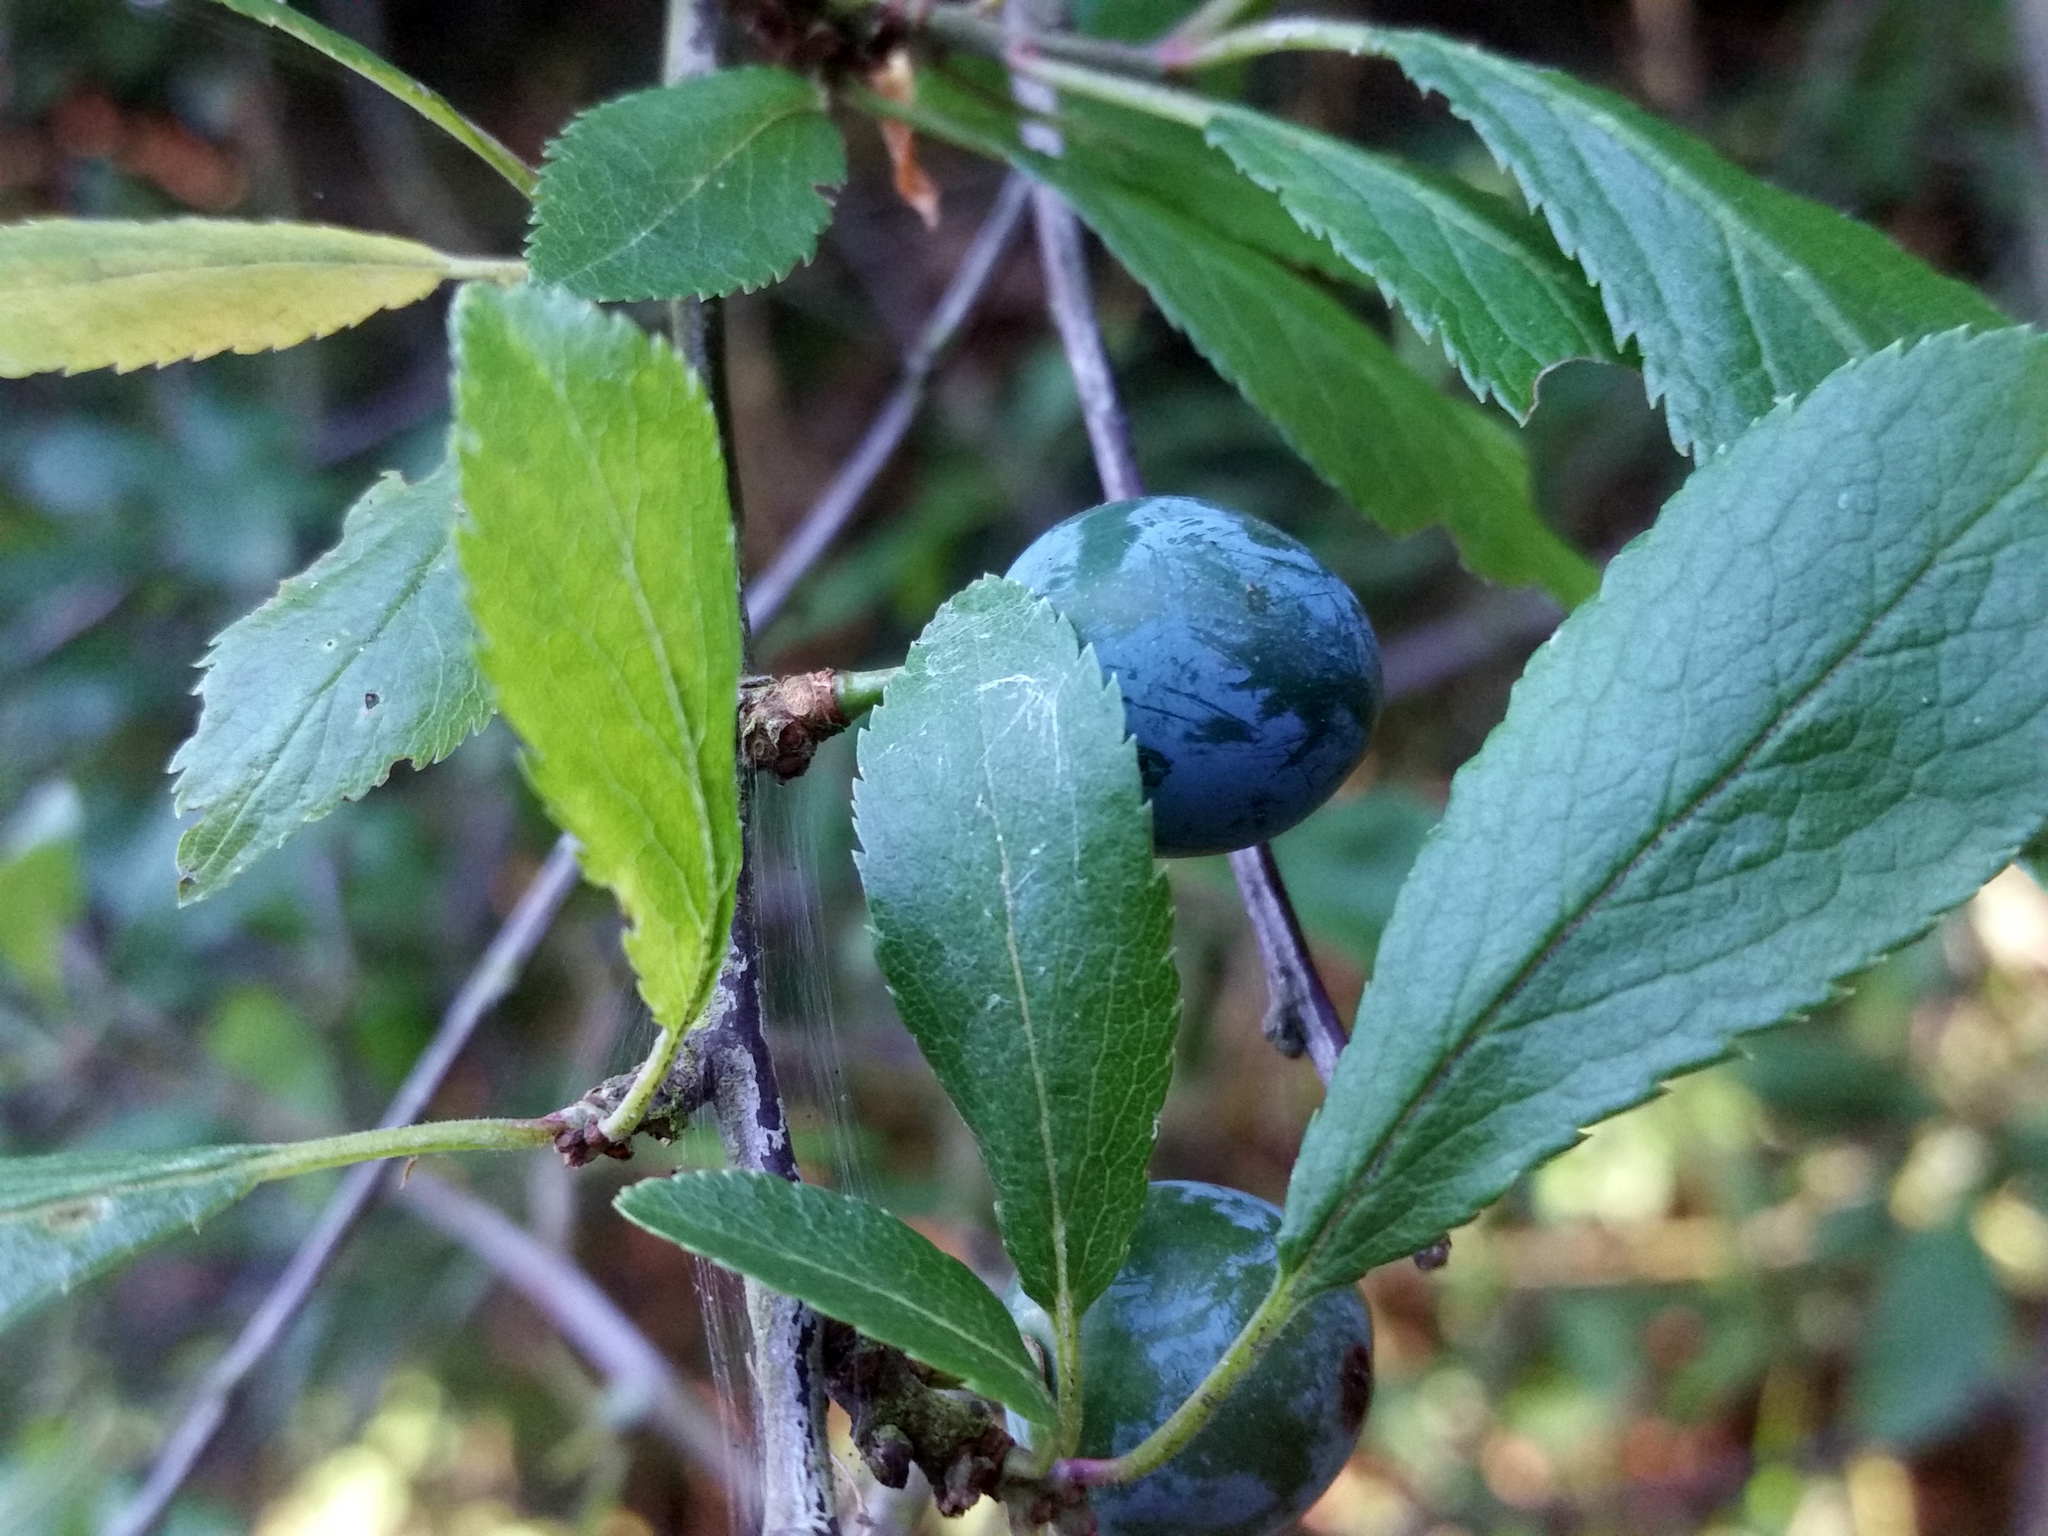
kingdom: Plantae
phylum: Tracheophyta
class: Magnoliopsida
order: Rosales
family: Rosaceae
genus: Prunus
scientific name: Prunus spinosa
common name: Blackthorn
